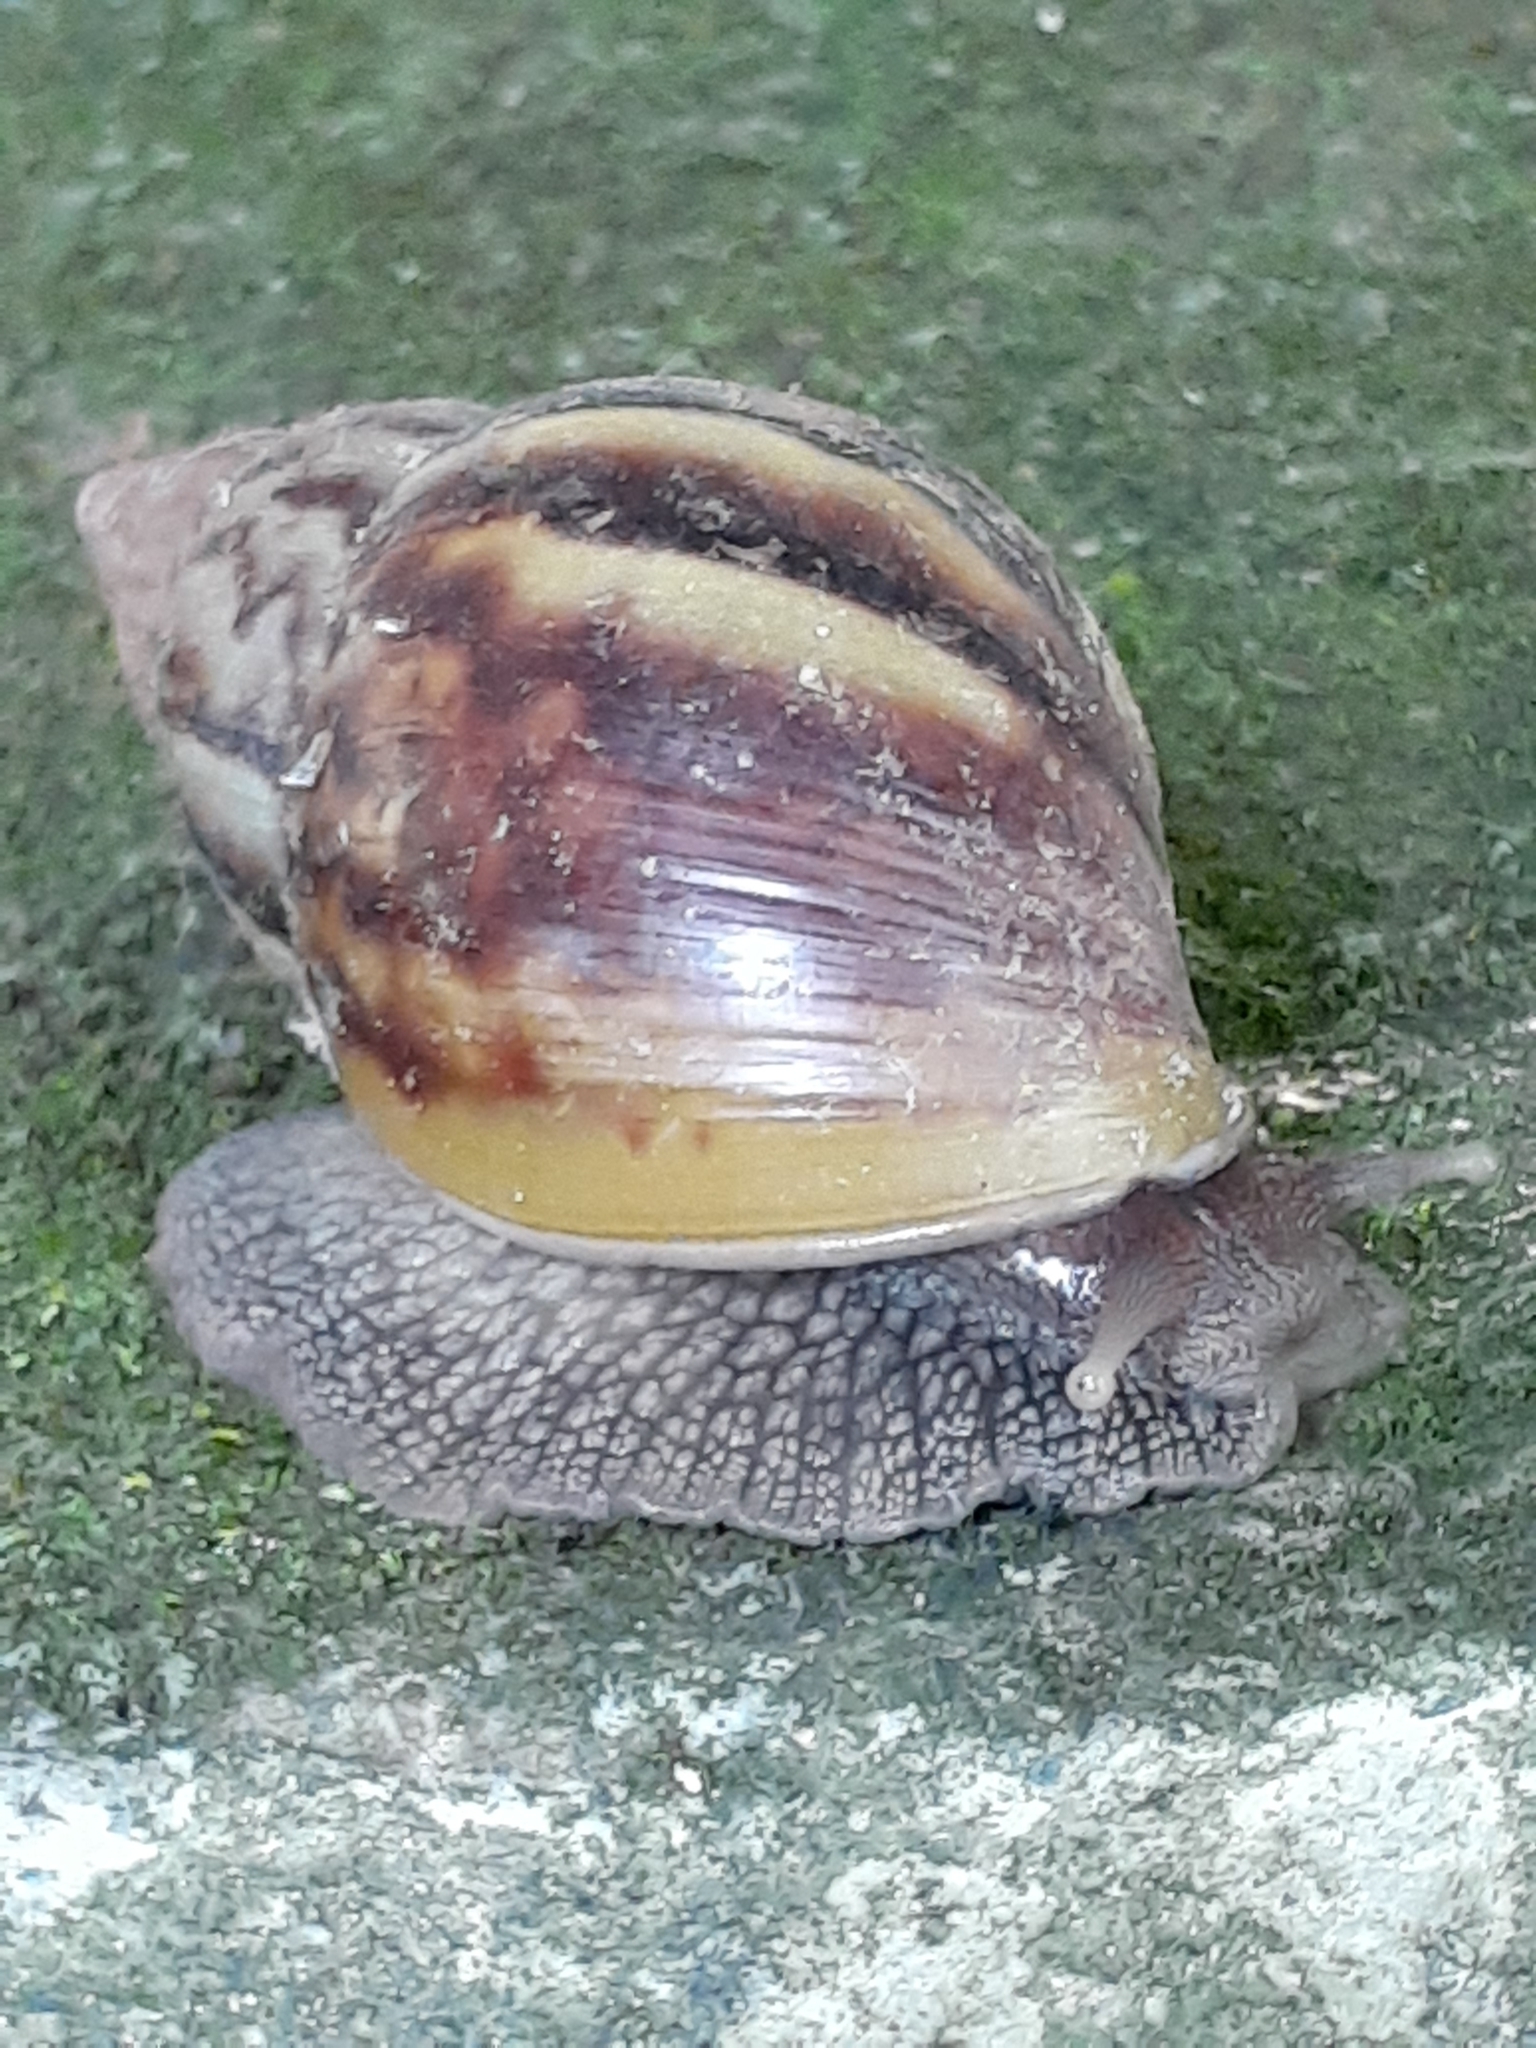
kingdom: Animalia
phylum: Mollusca
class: Gastropoda
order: Stylommatophora
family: Achatinidae
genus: Lissachatina
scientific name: Lissachatina fulica
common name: Giant african snail
